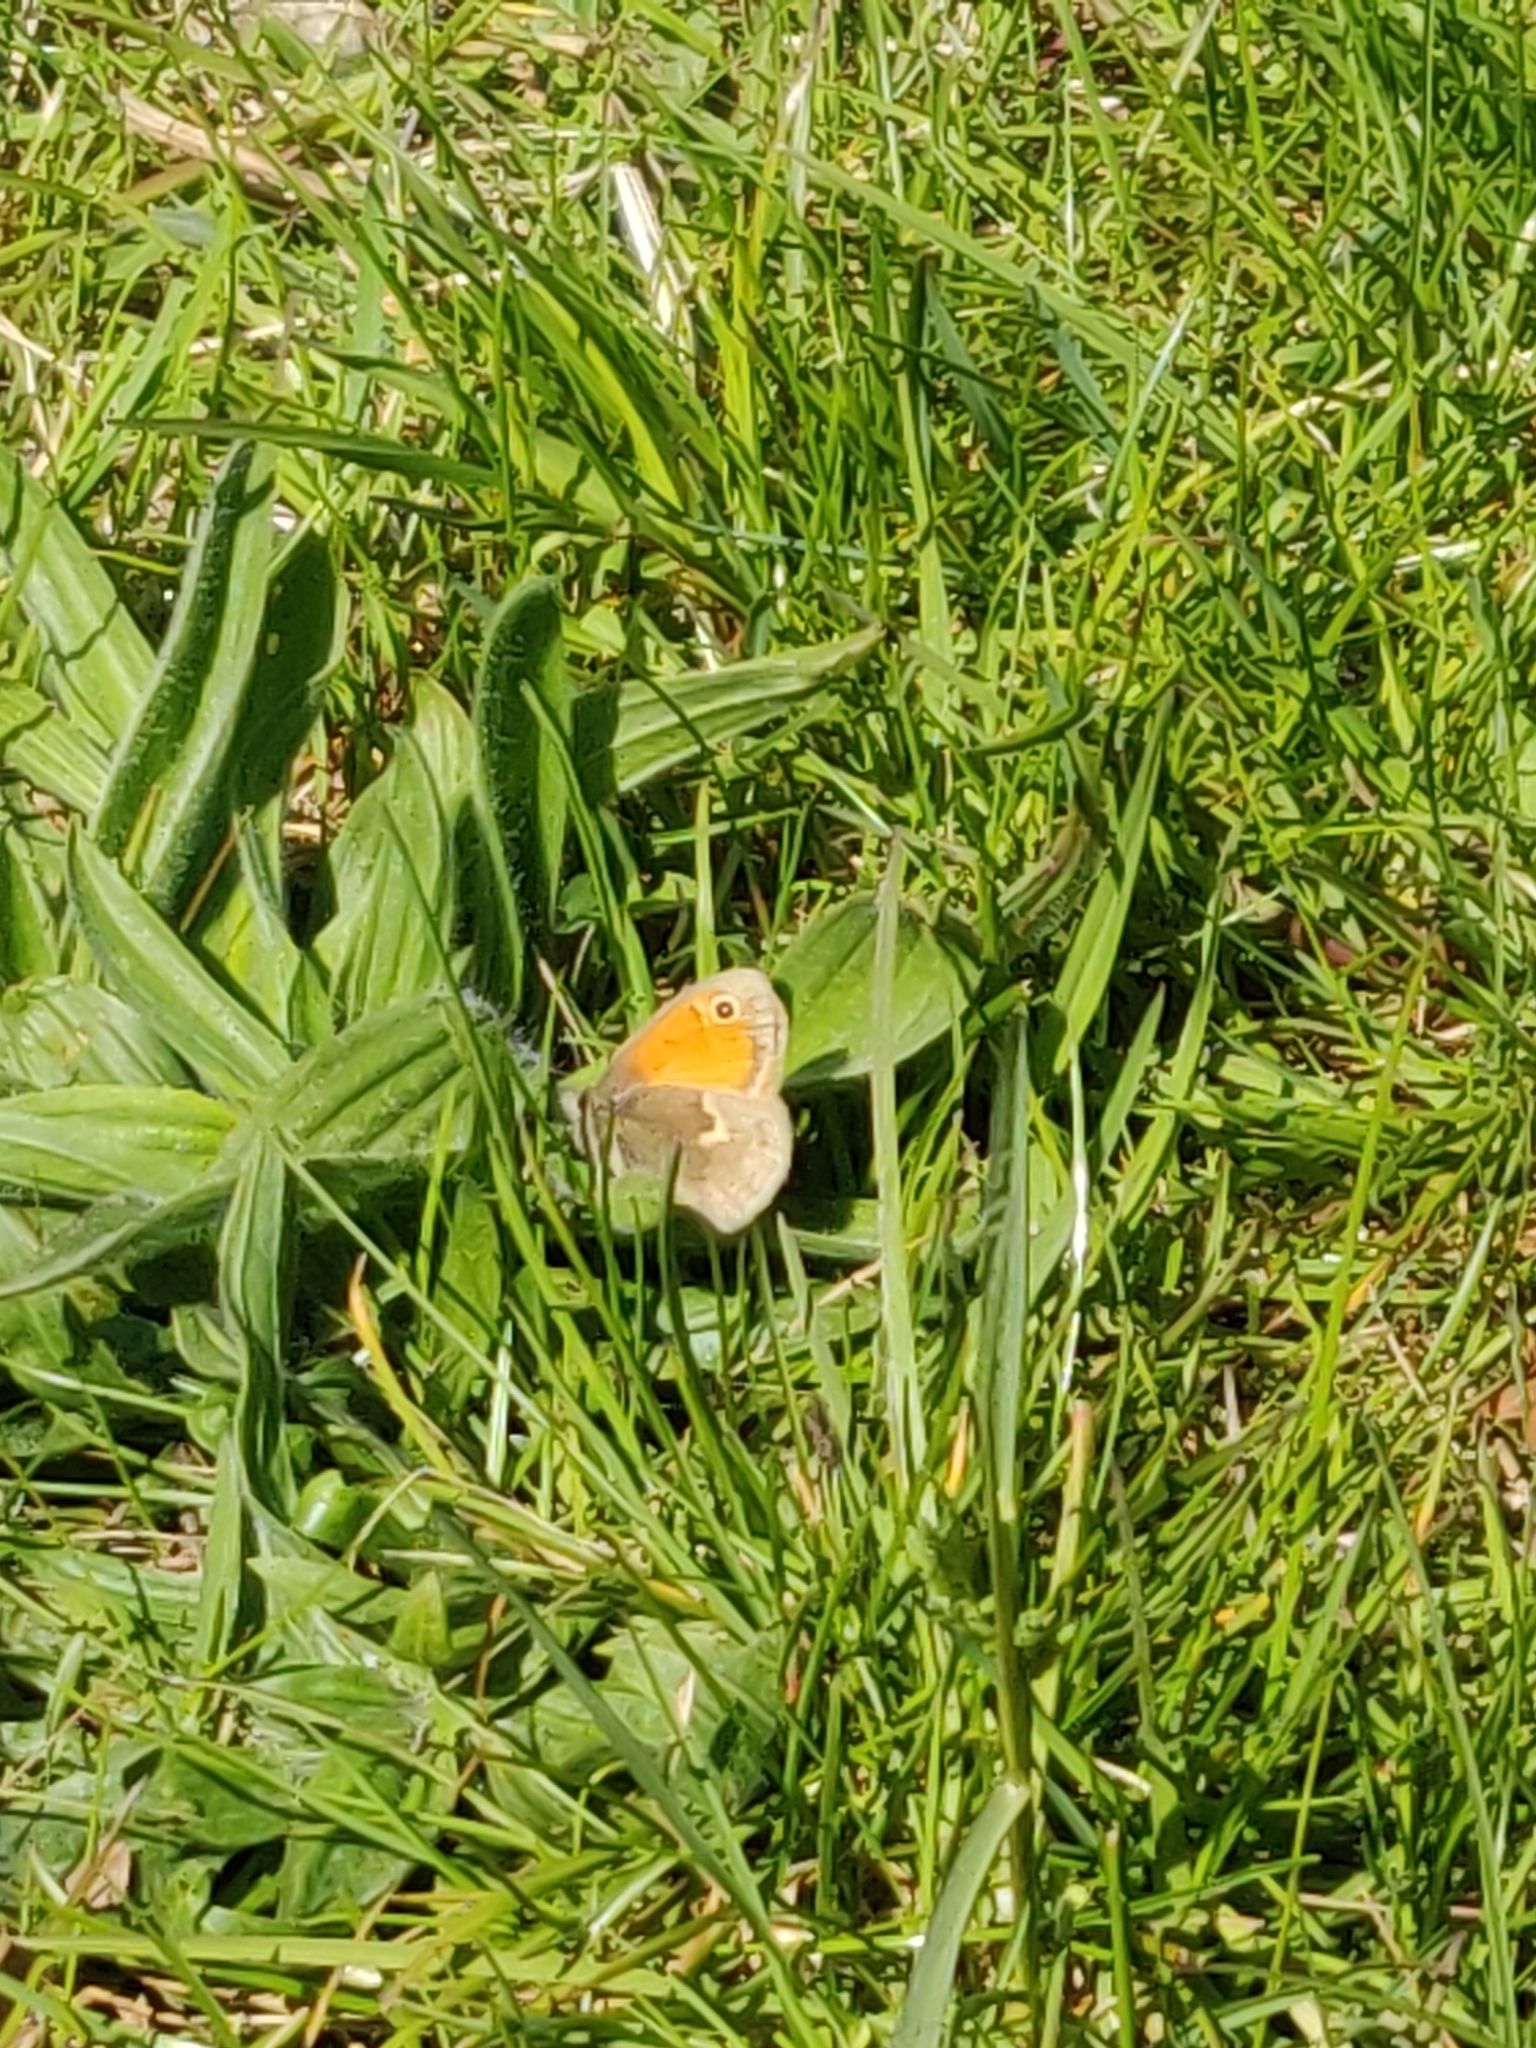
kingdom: Animalia
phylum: Arthropoda
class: Insecta
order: Lepidoptera
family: Nymphalidae
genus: Coenonympha
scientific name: Coenonympha pamphilus
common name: Small heath
